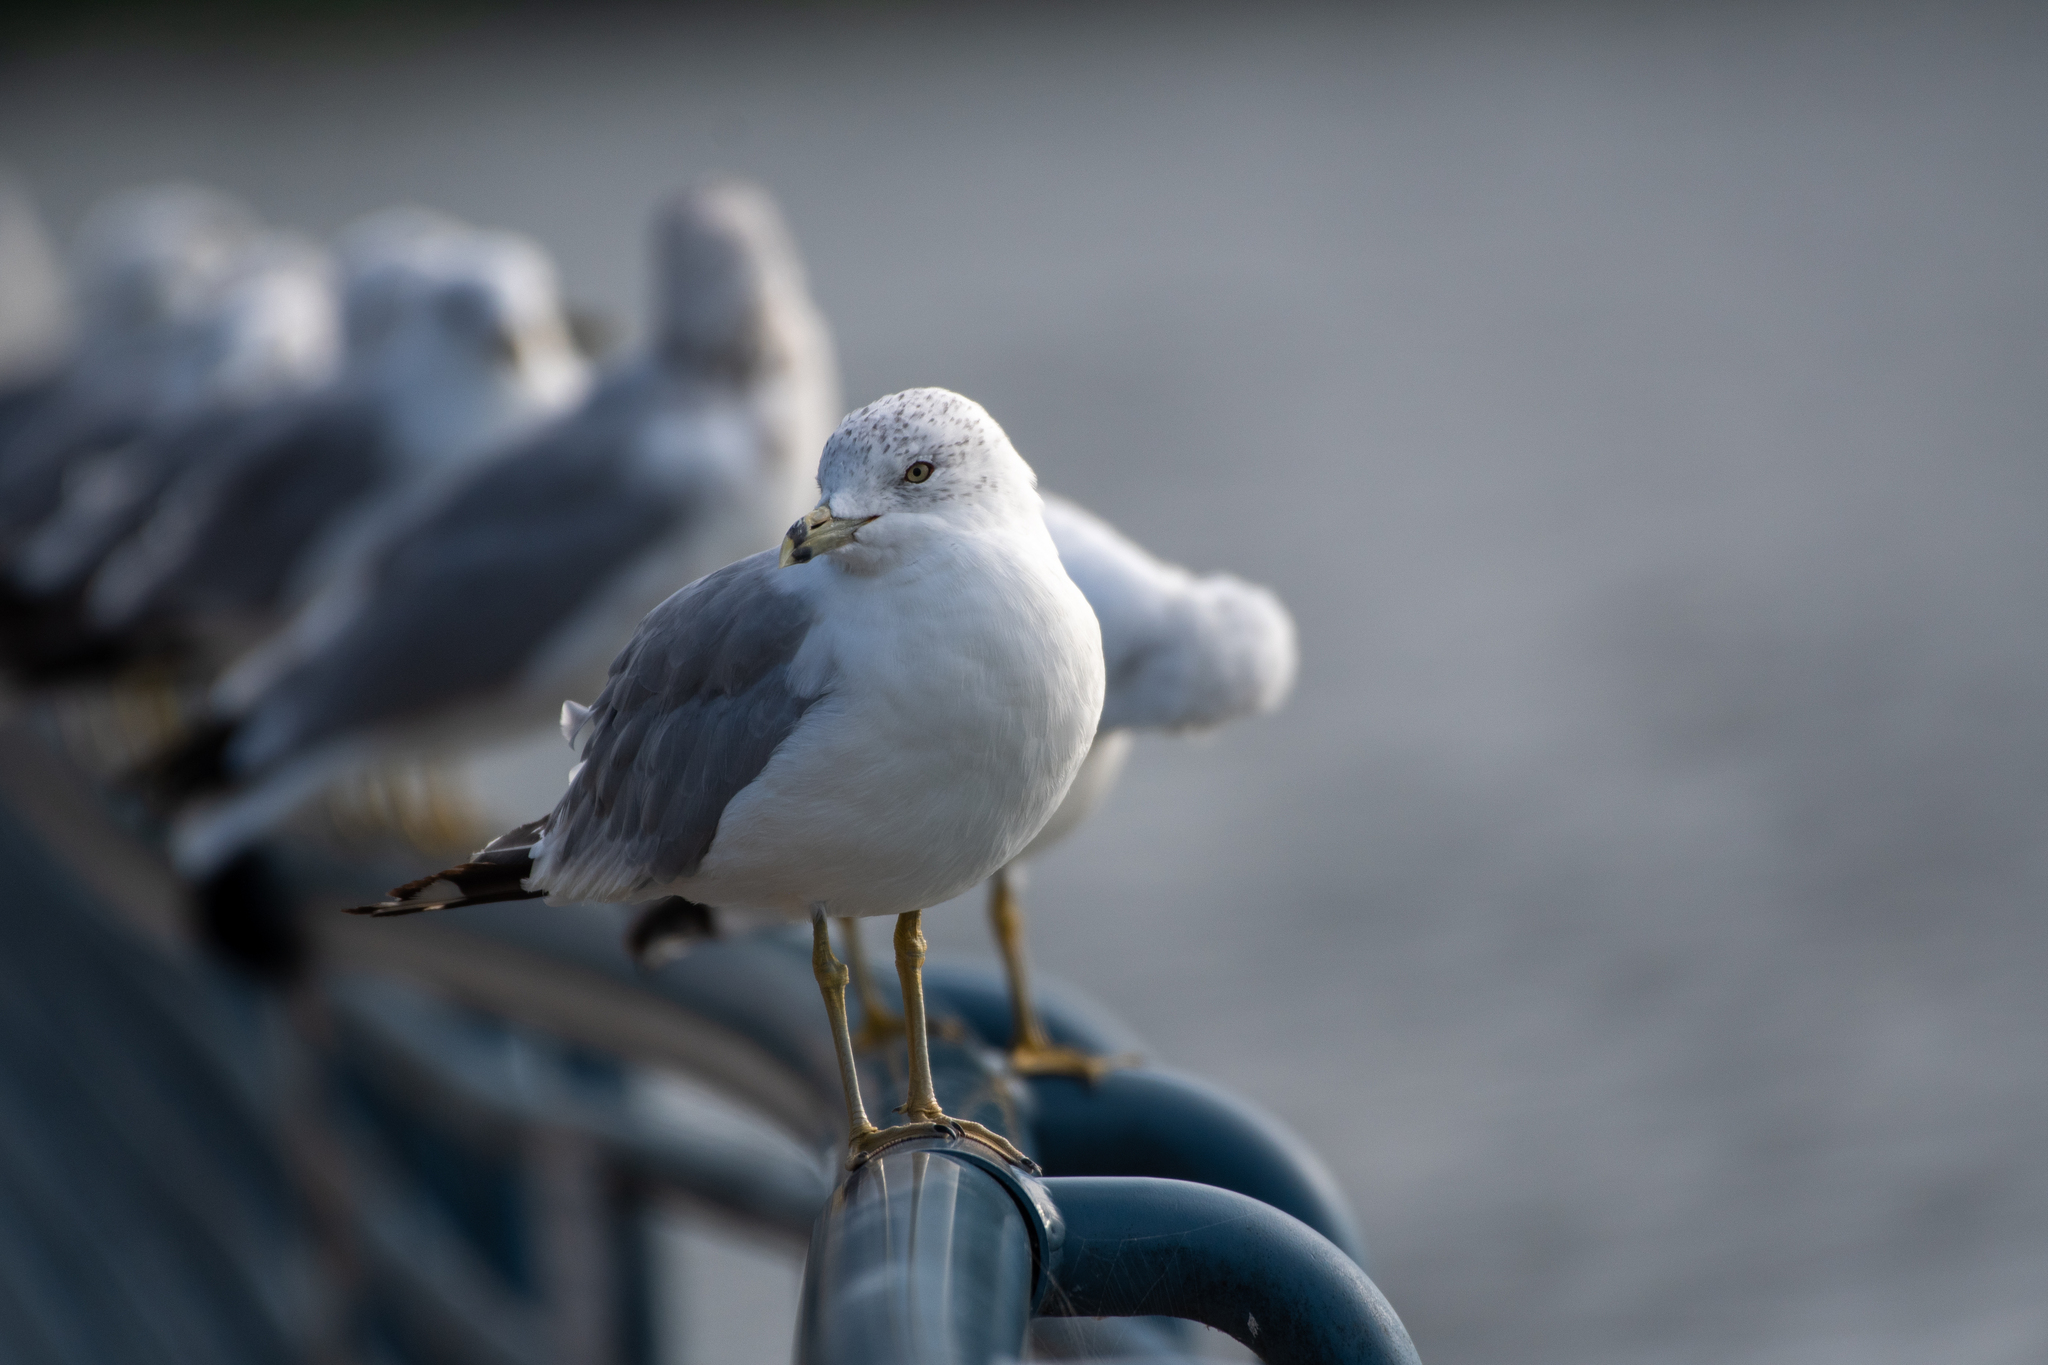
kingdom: Animalia
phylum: Chordata
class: Aves
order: Charadriiformes
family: Laridae
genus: Larus
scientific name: Larus delawarensis
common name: Ring-billed gull
